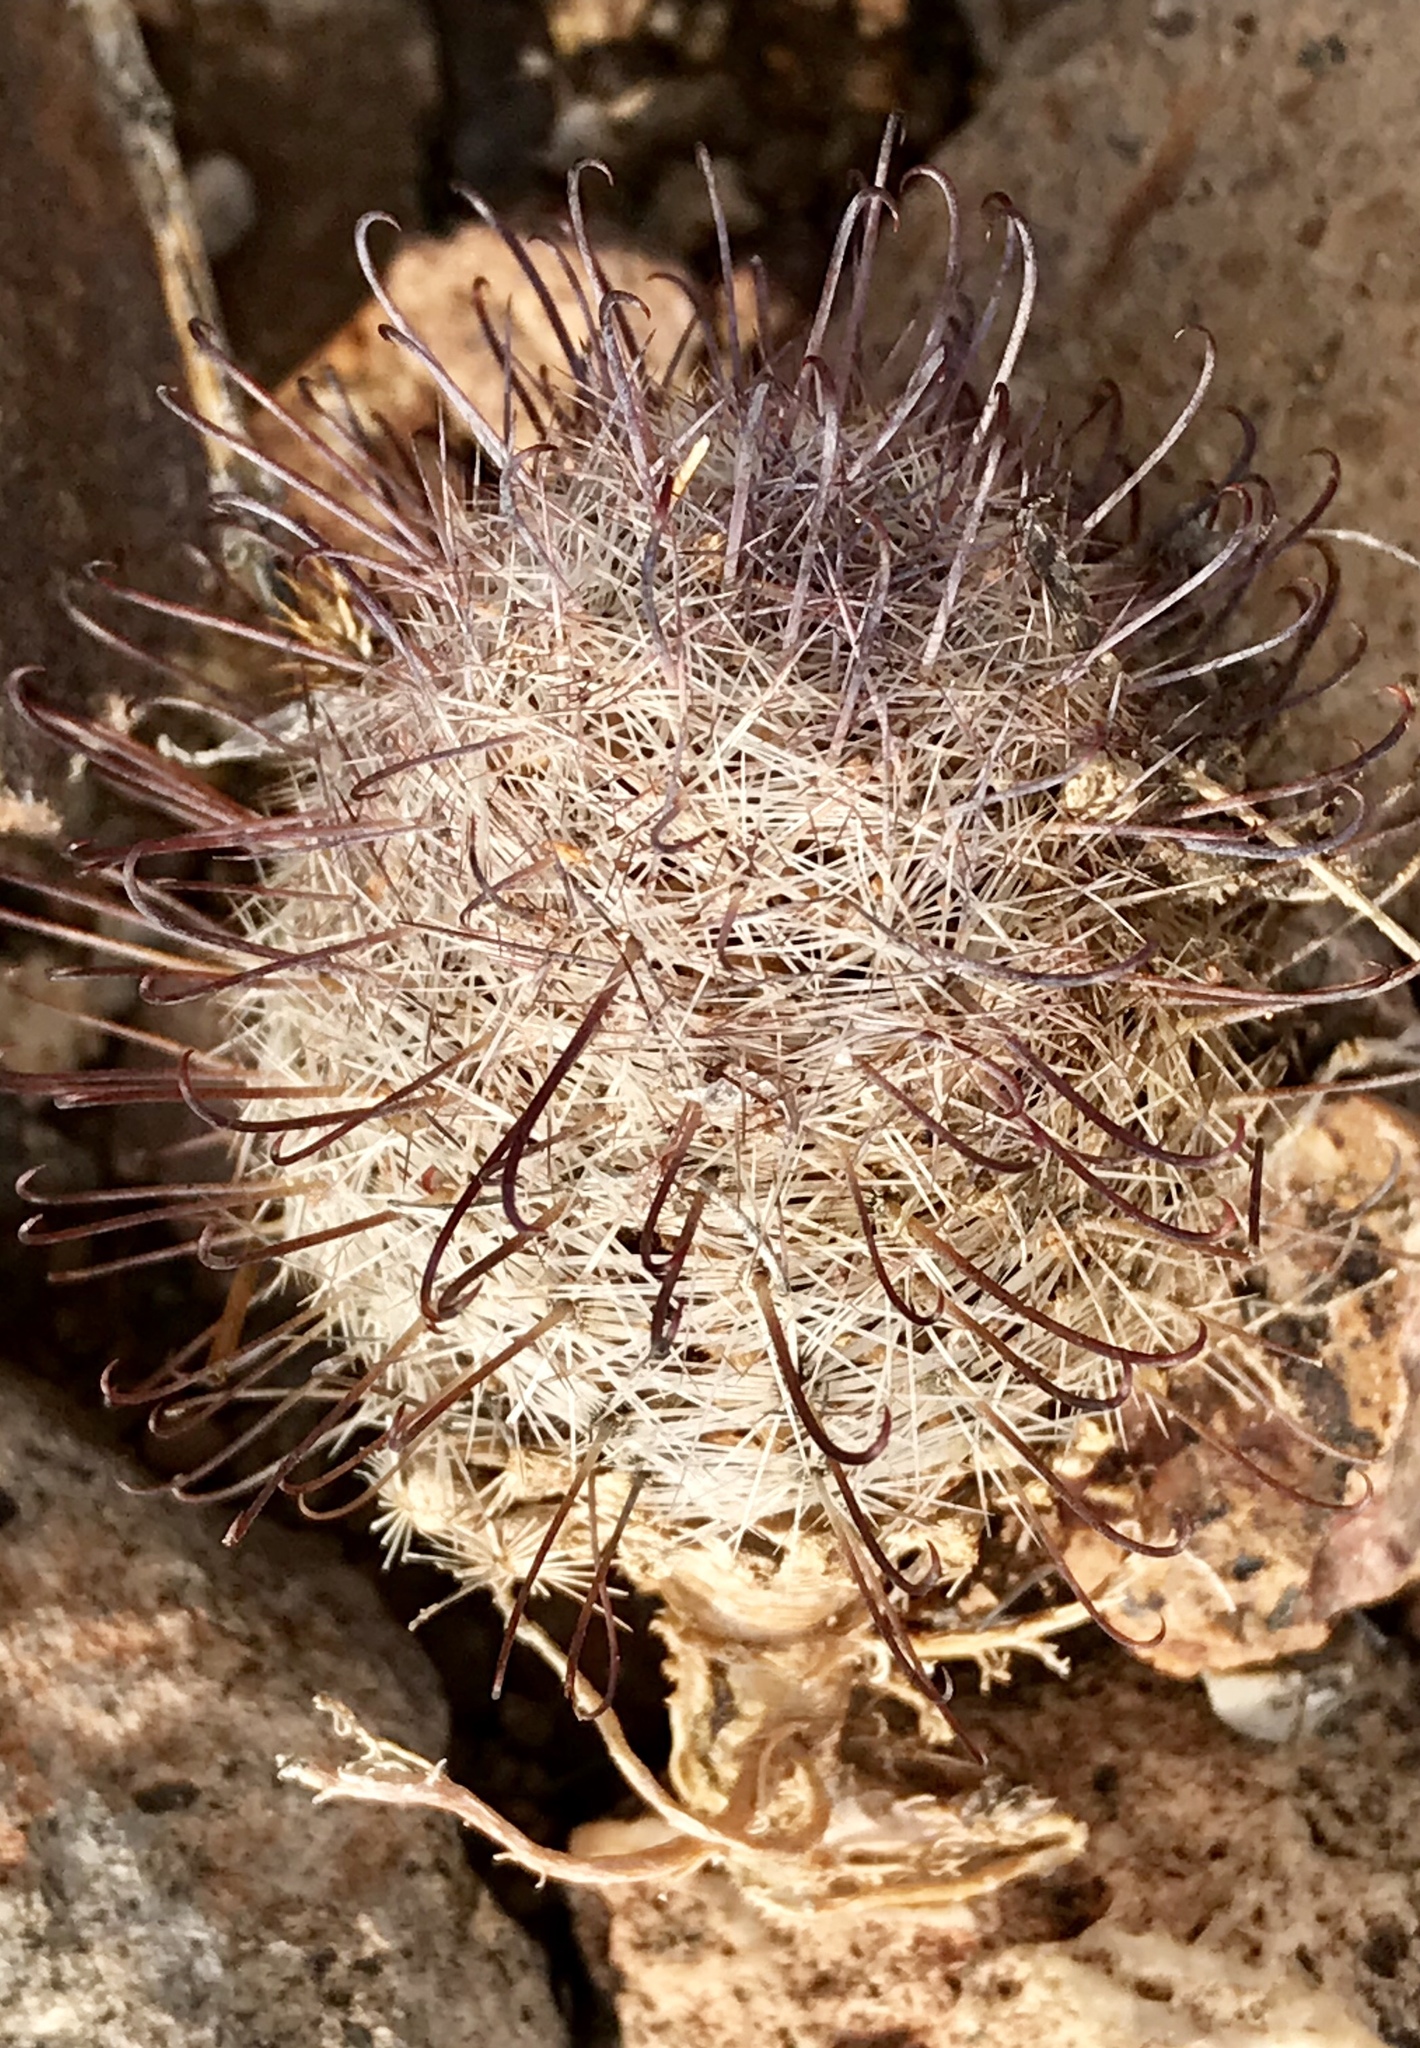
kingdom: Plantae
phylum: Tracheophyta
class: Magnoliopsida
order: Caryophyllales
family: Cactaceae
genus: Cochemiea
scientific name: Cochemiea grahamii
